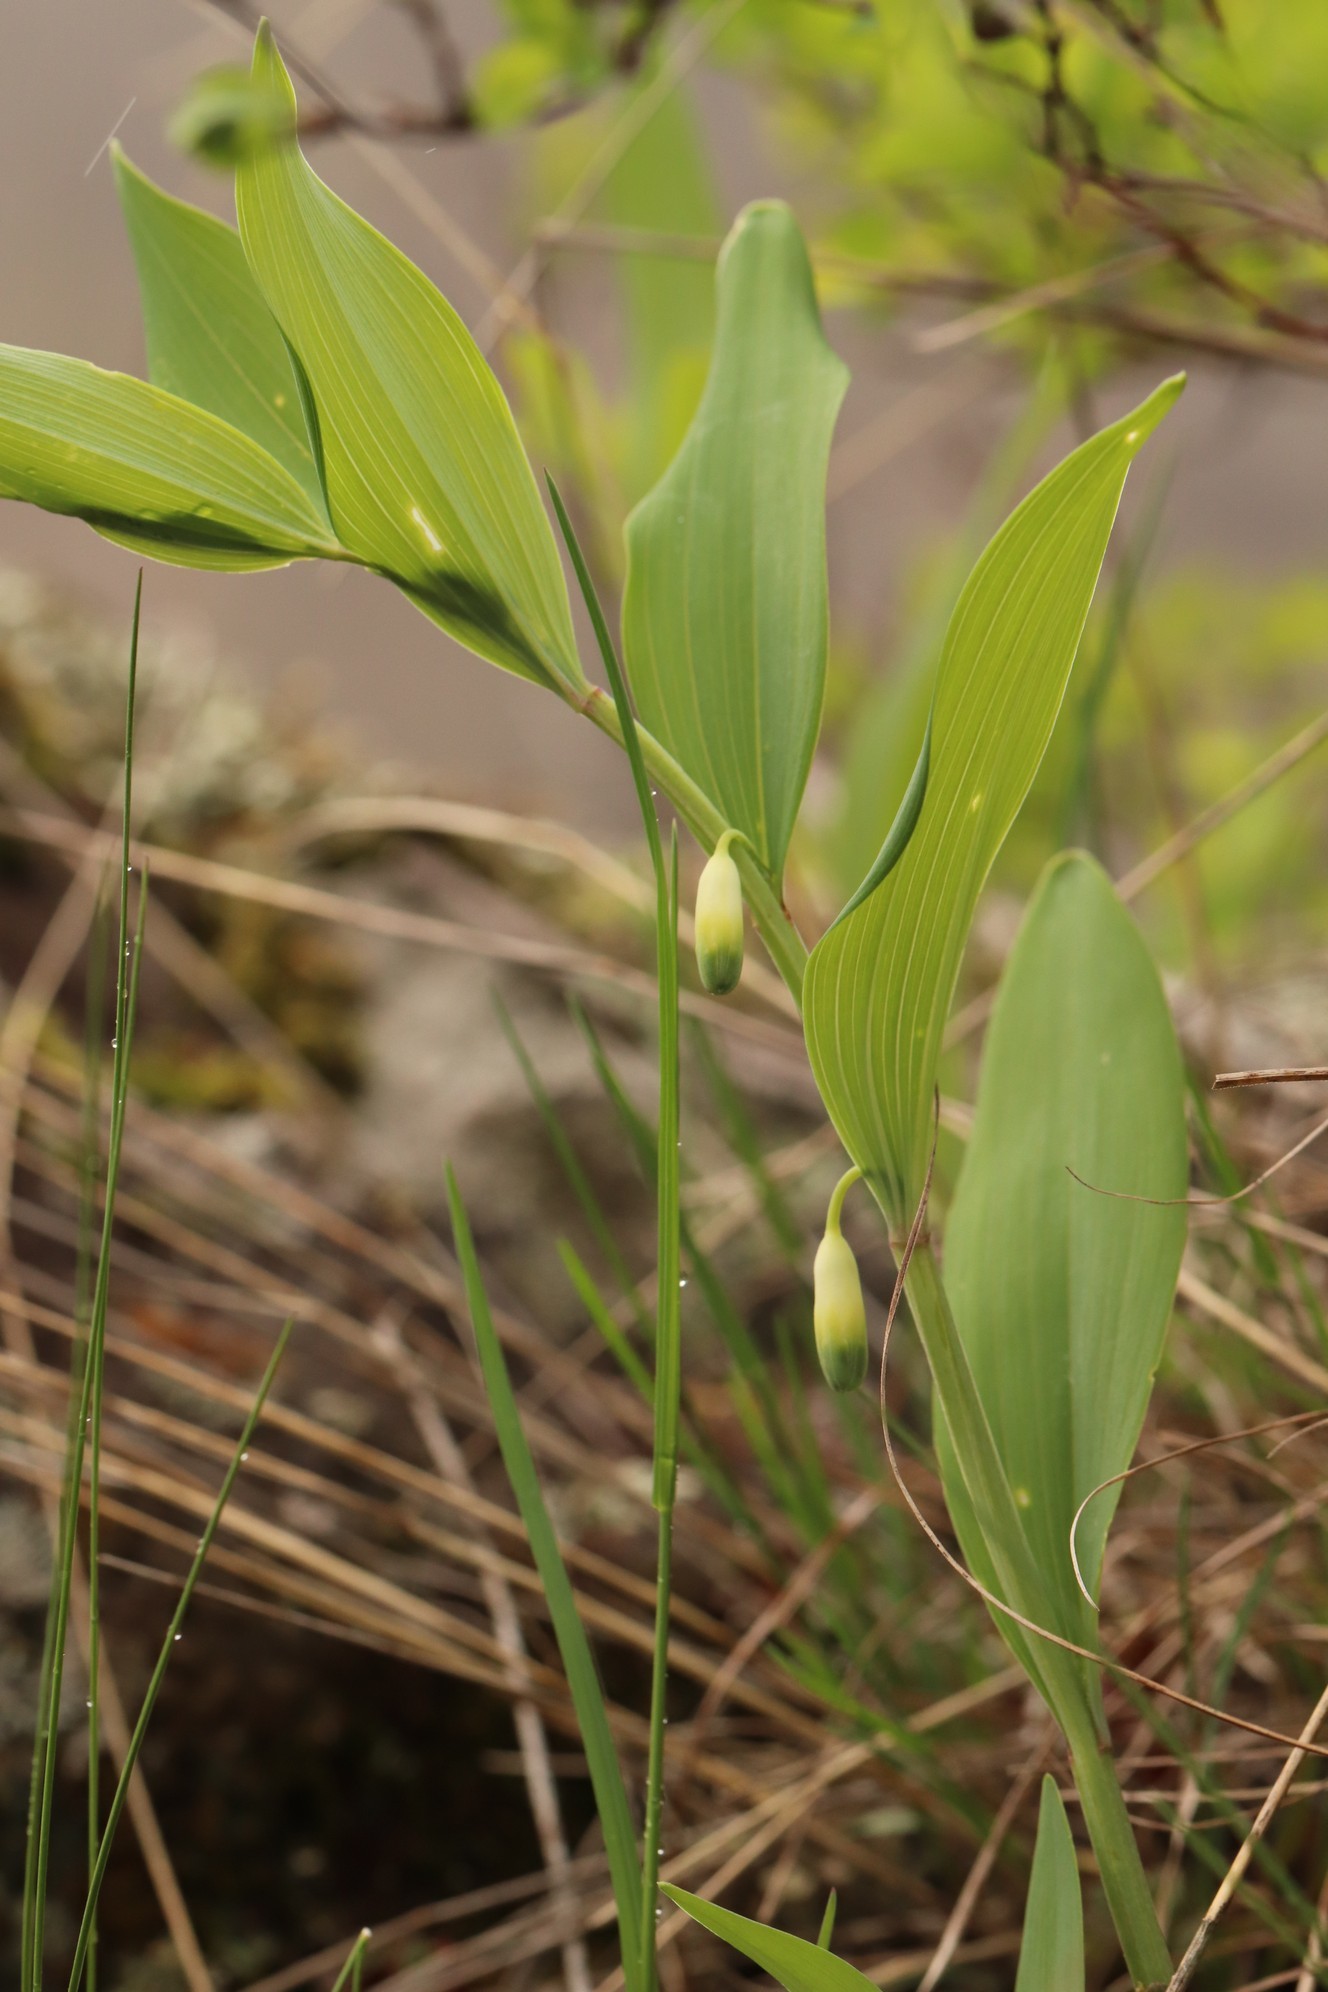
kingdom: Plantae
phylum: Tracheophyta
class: Liliopsida
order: Asparagales
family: Asparagaceae
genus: Polygonatum
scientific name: Polygonatum odoratum
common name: Angular solomon's-seal
